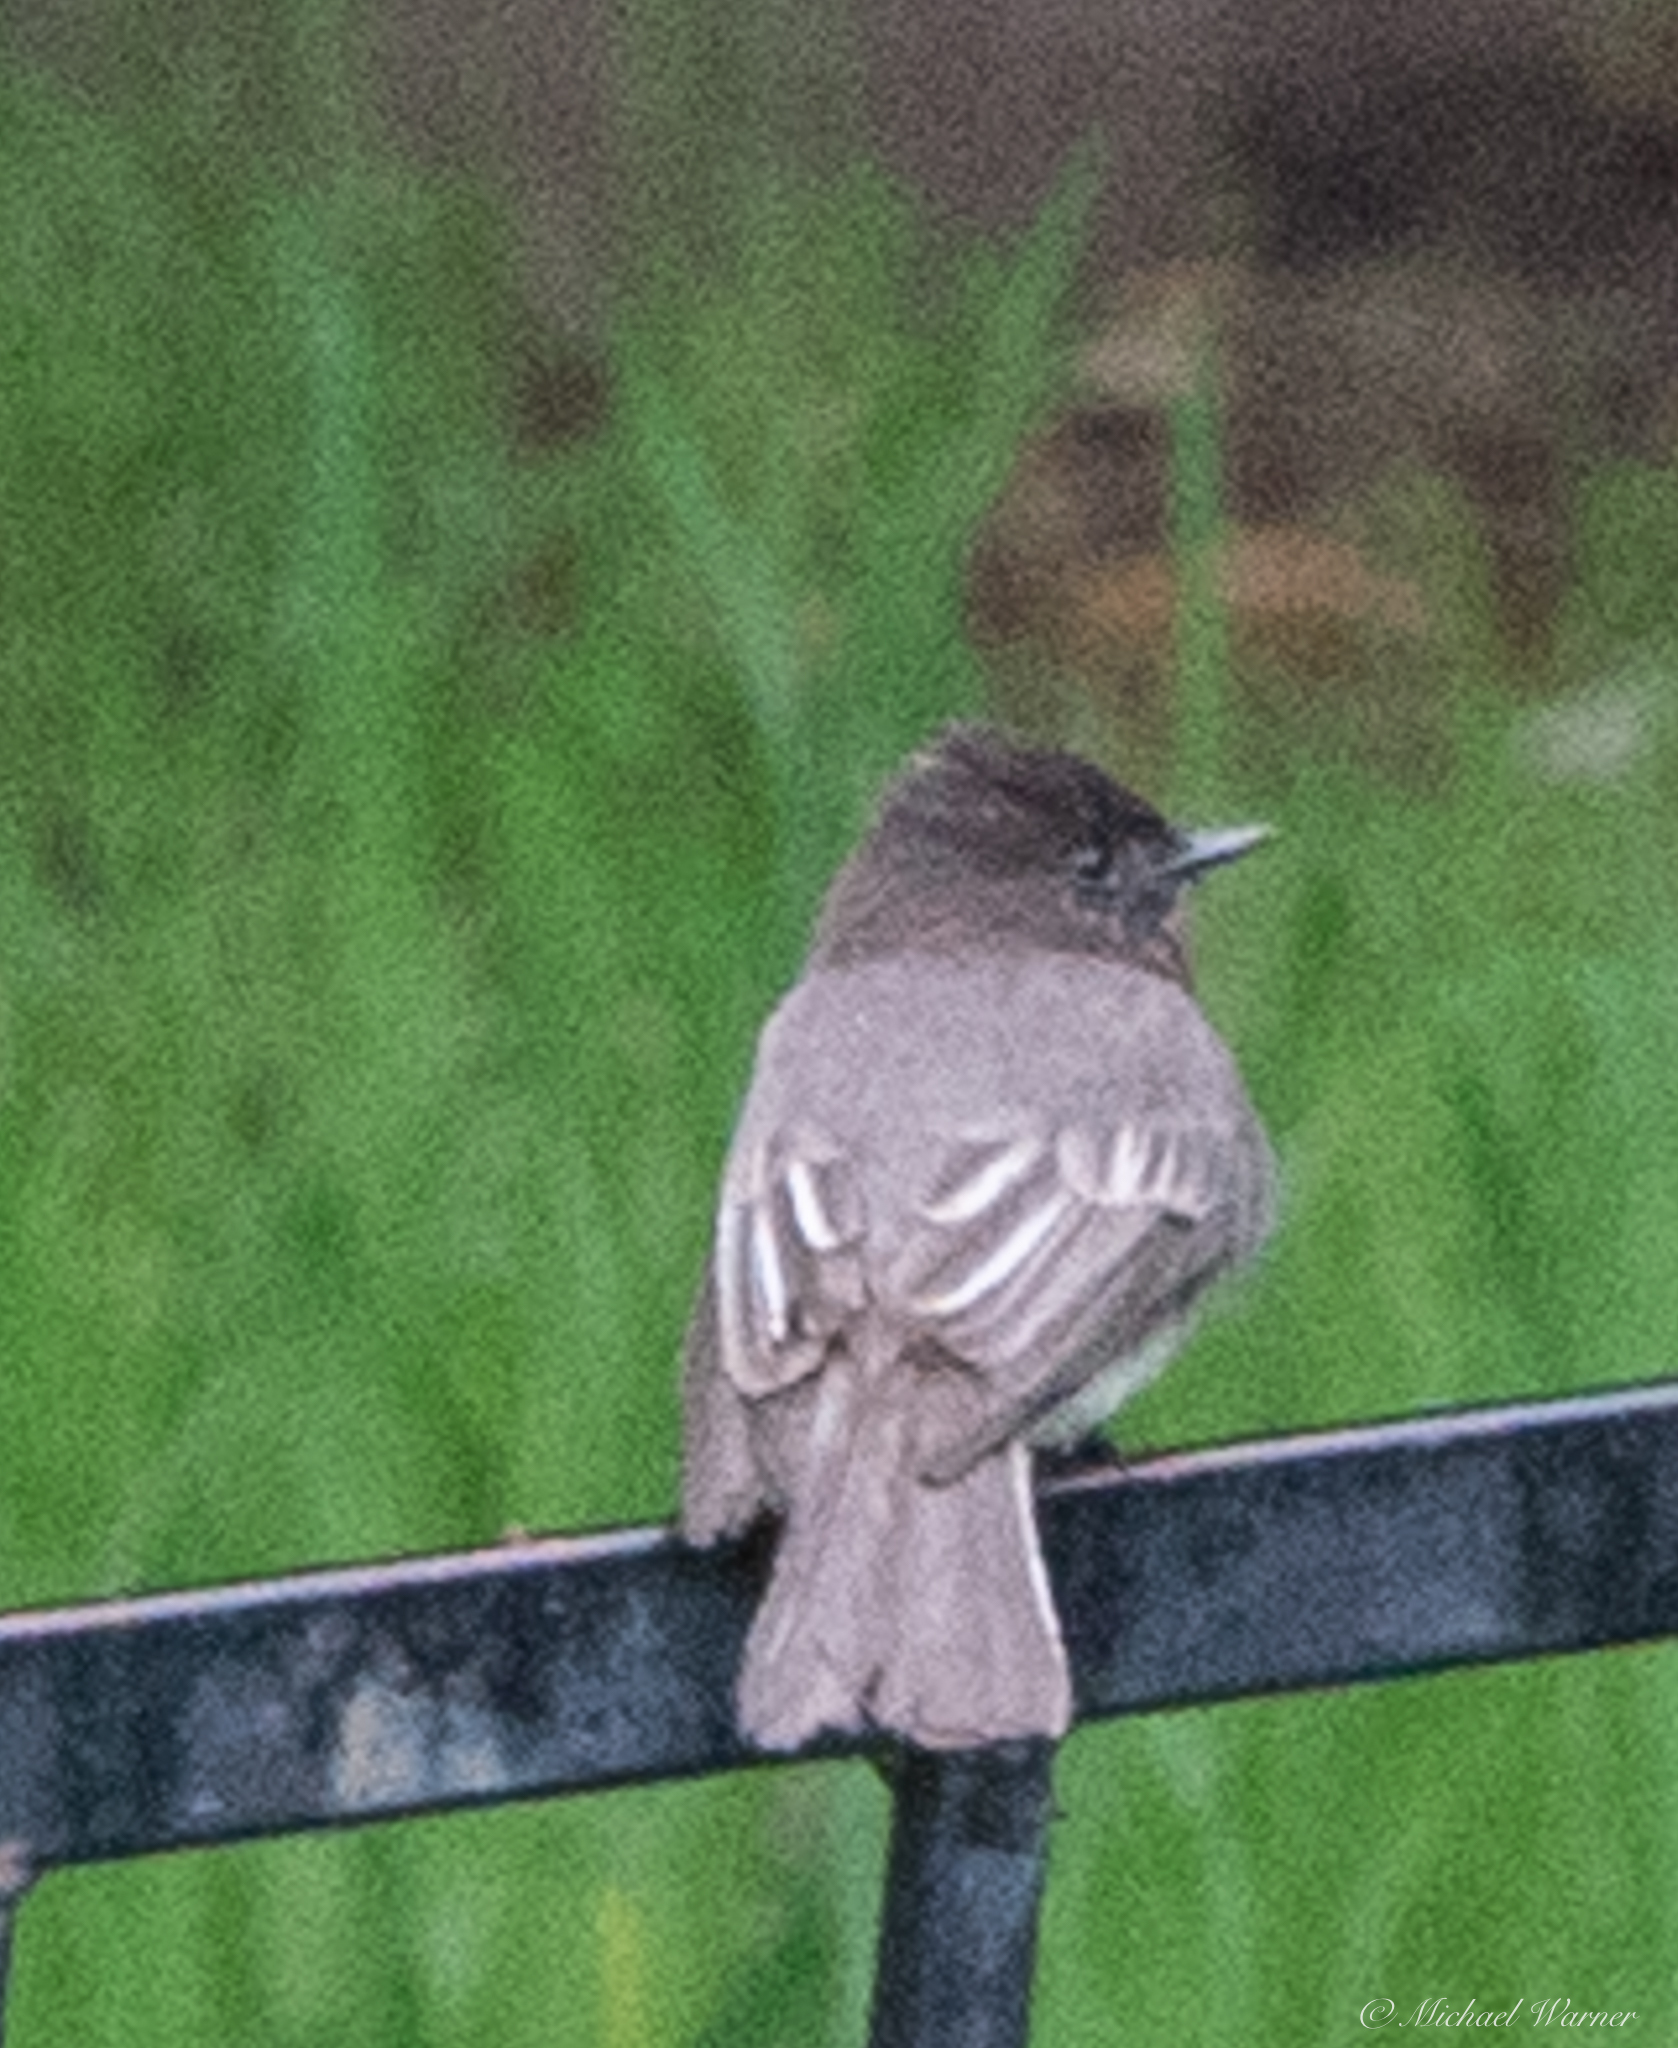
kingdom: Animalia
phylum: Chordata
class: Aves
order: Passeriformes
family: Tyrannidae
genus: Sayornis
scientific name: Sayornis nigricans
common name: Black phoebe
